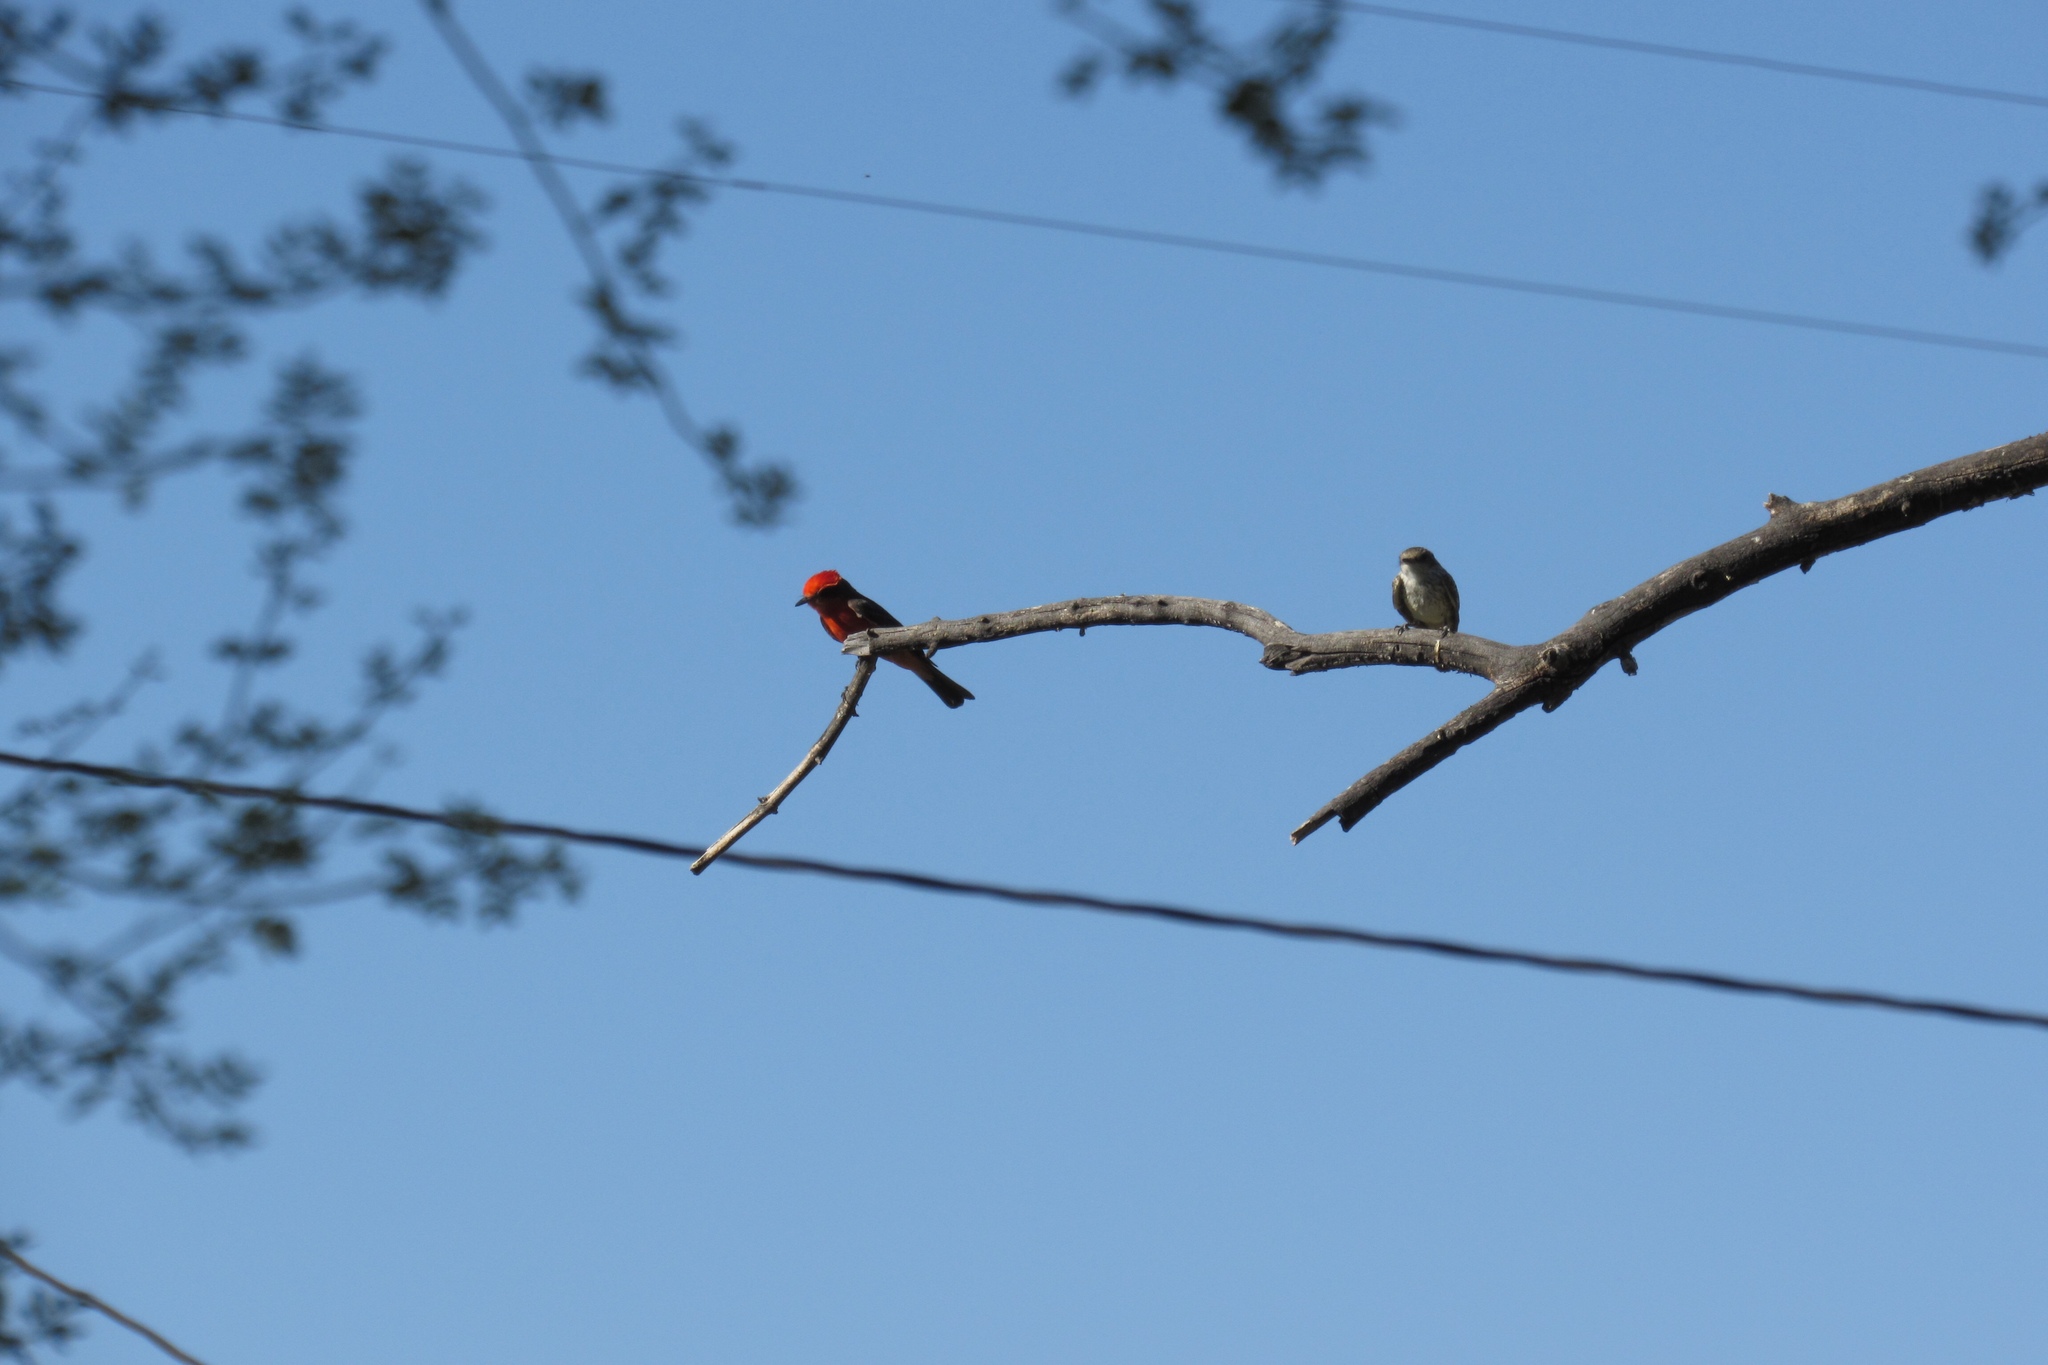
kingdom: Animalia
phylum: Chordata
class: Aves
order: Passeriformes
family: Tyrannidae
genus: Pyrocephalus
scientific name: Pyrocephalus rubinus
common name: Vermilion flycatcher
